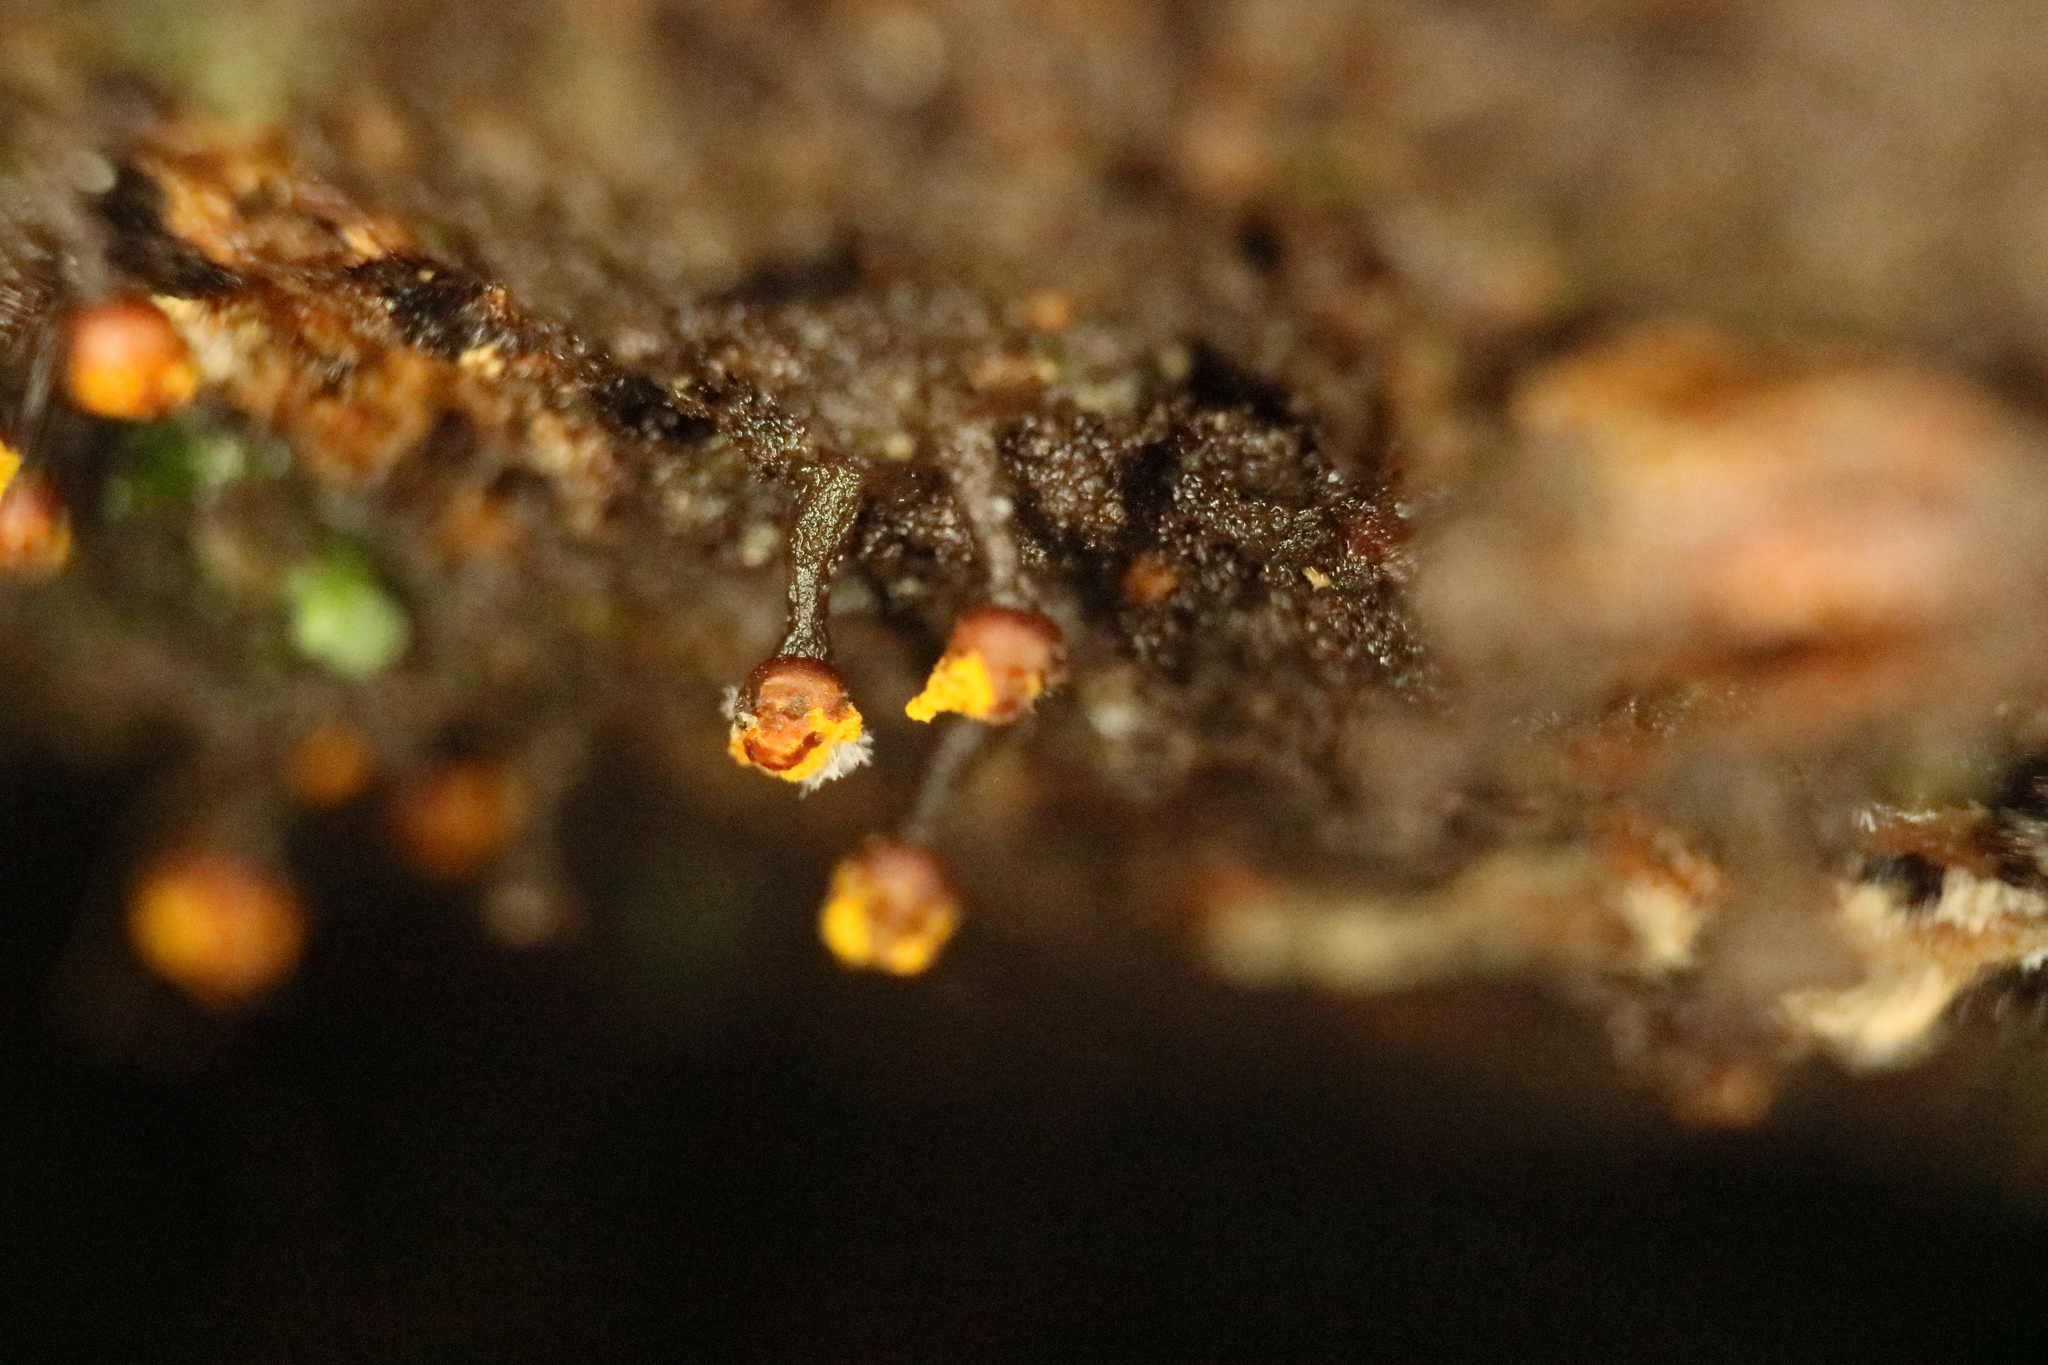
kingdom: Protozoa
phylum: Mycetozoa
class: Myxomycetes
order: Trichiales
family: Trichiaceae
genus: Trichia
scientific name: Trichia erecta
